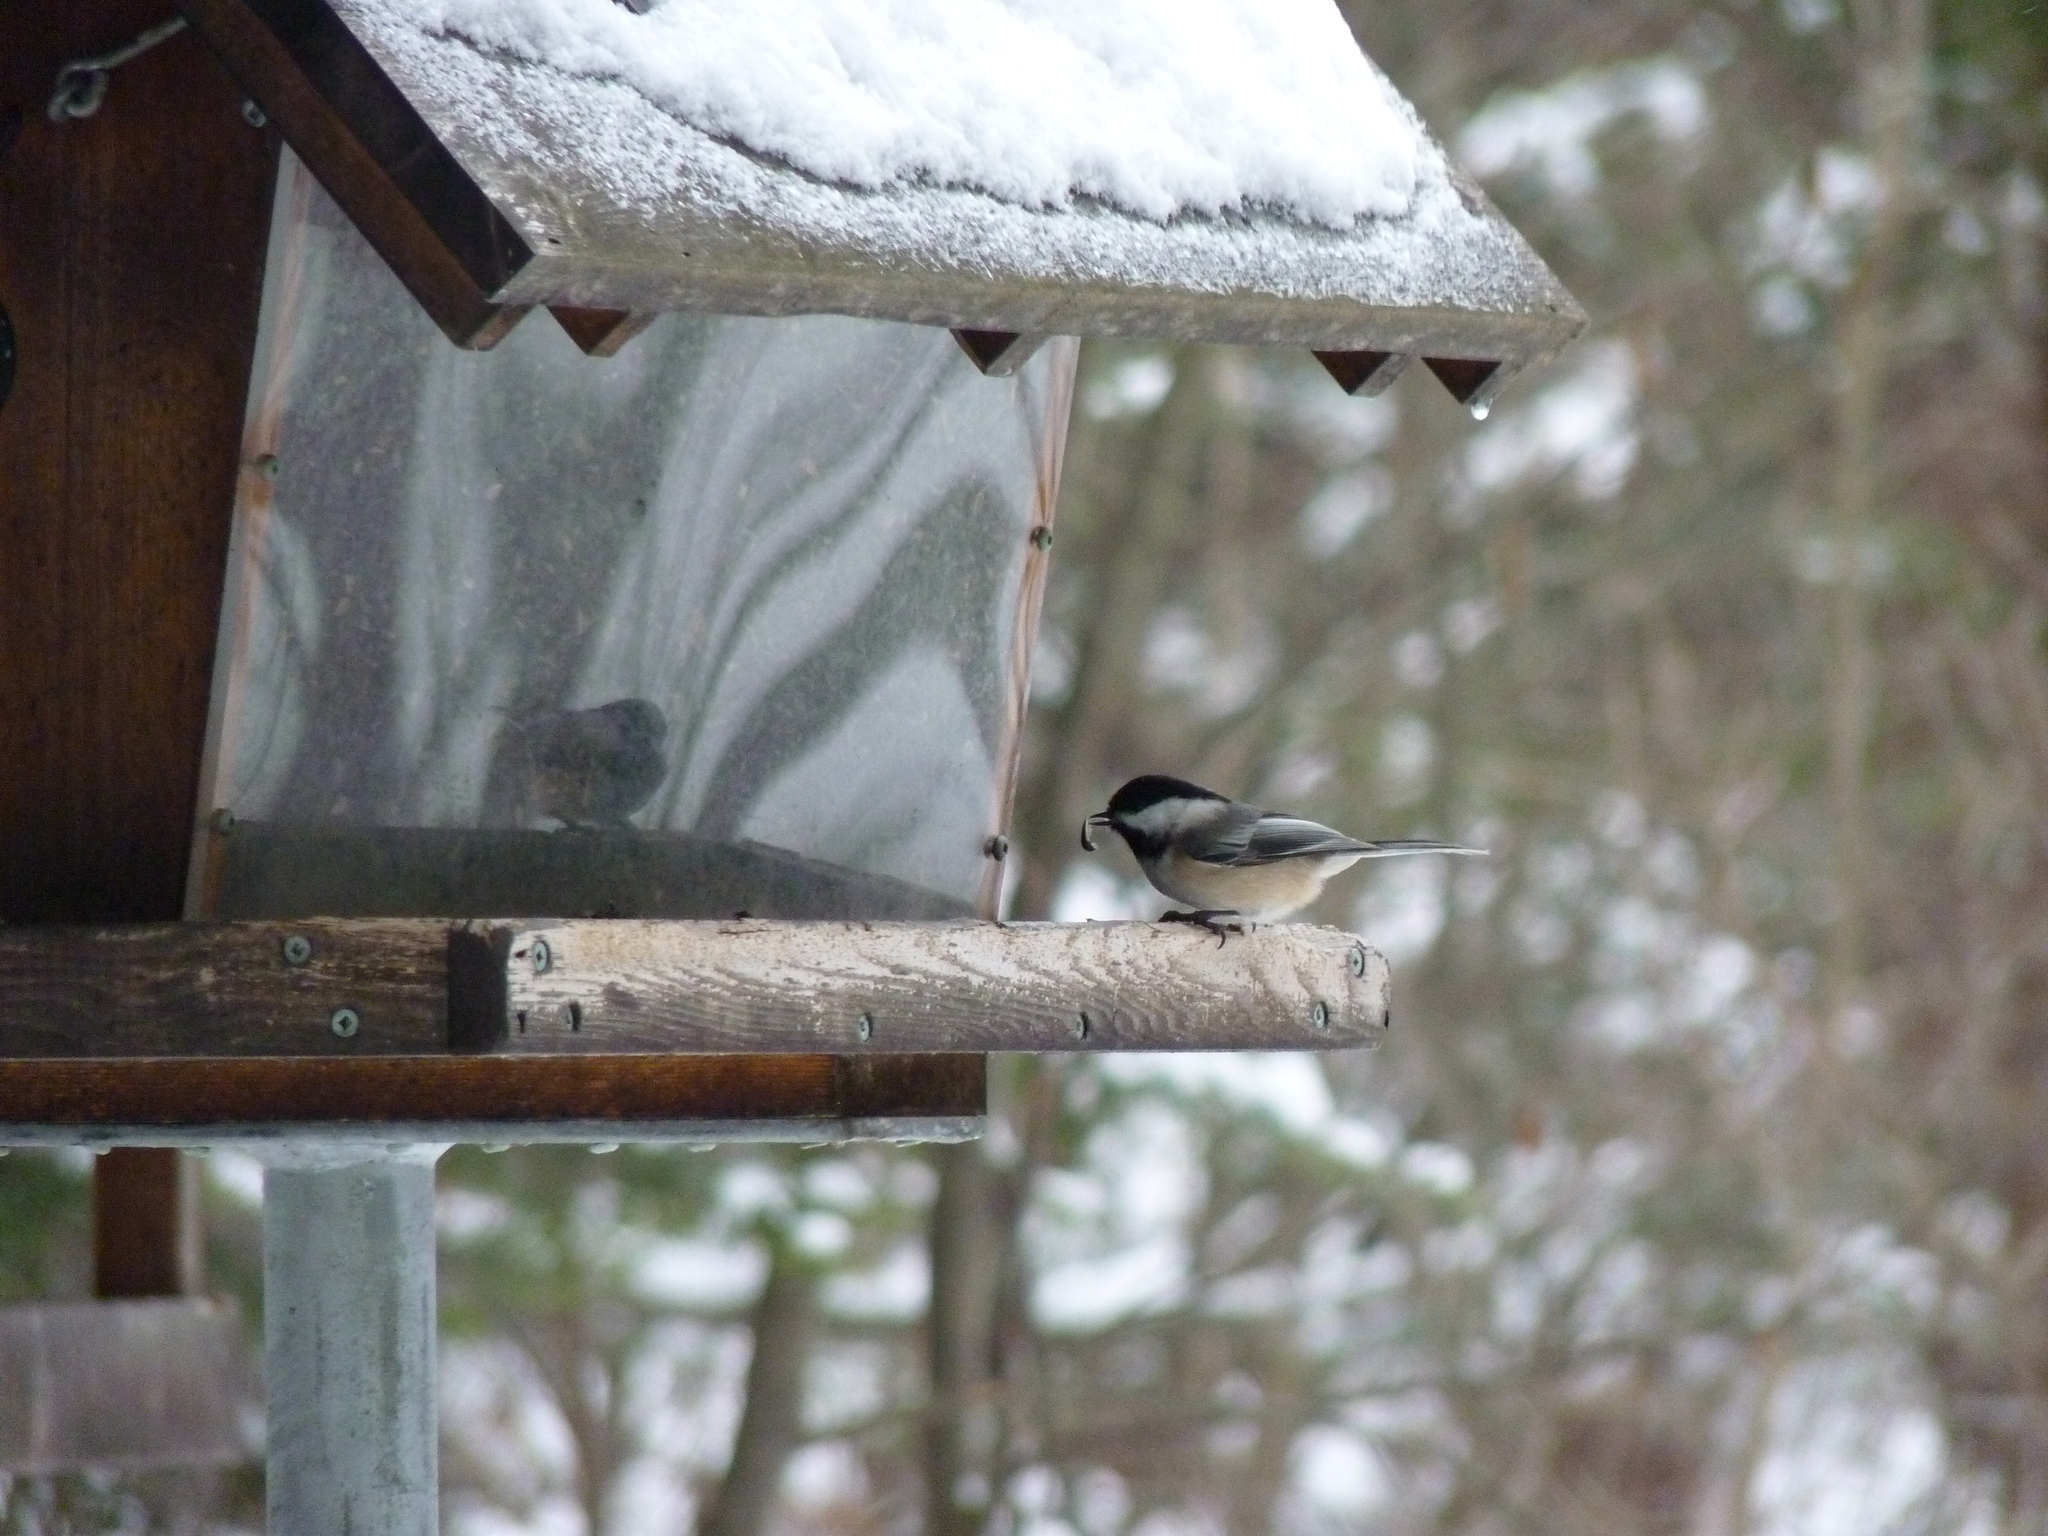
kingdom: Animalia
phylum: Chordata
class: Aves
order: Passeriformes
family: Paridae
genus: Poecile
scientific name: Poecile atricapillus
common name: Black-capped chickadee
